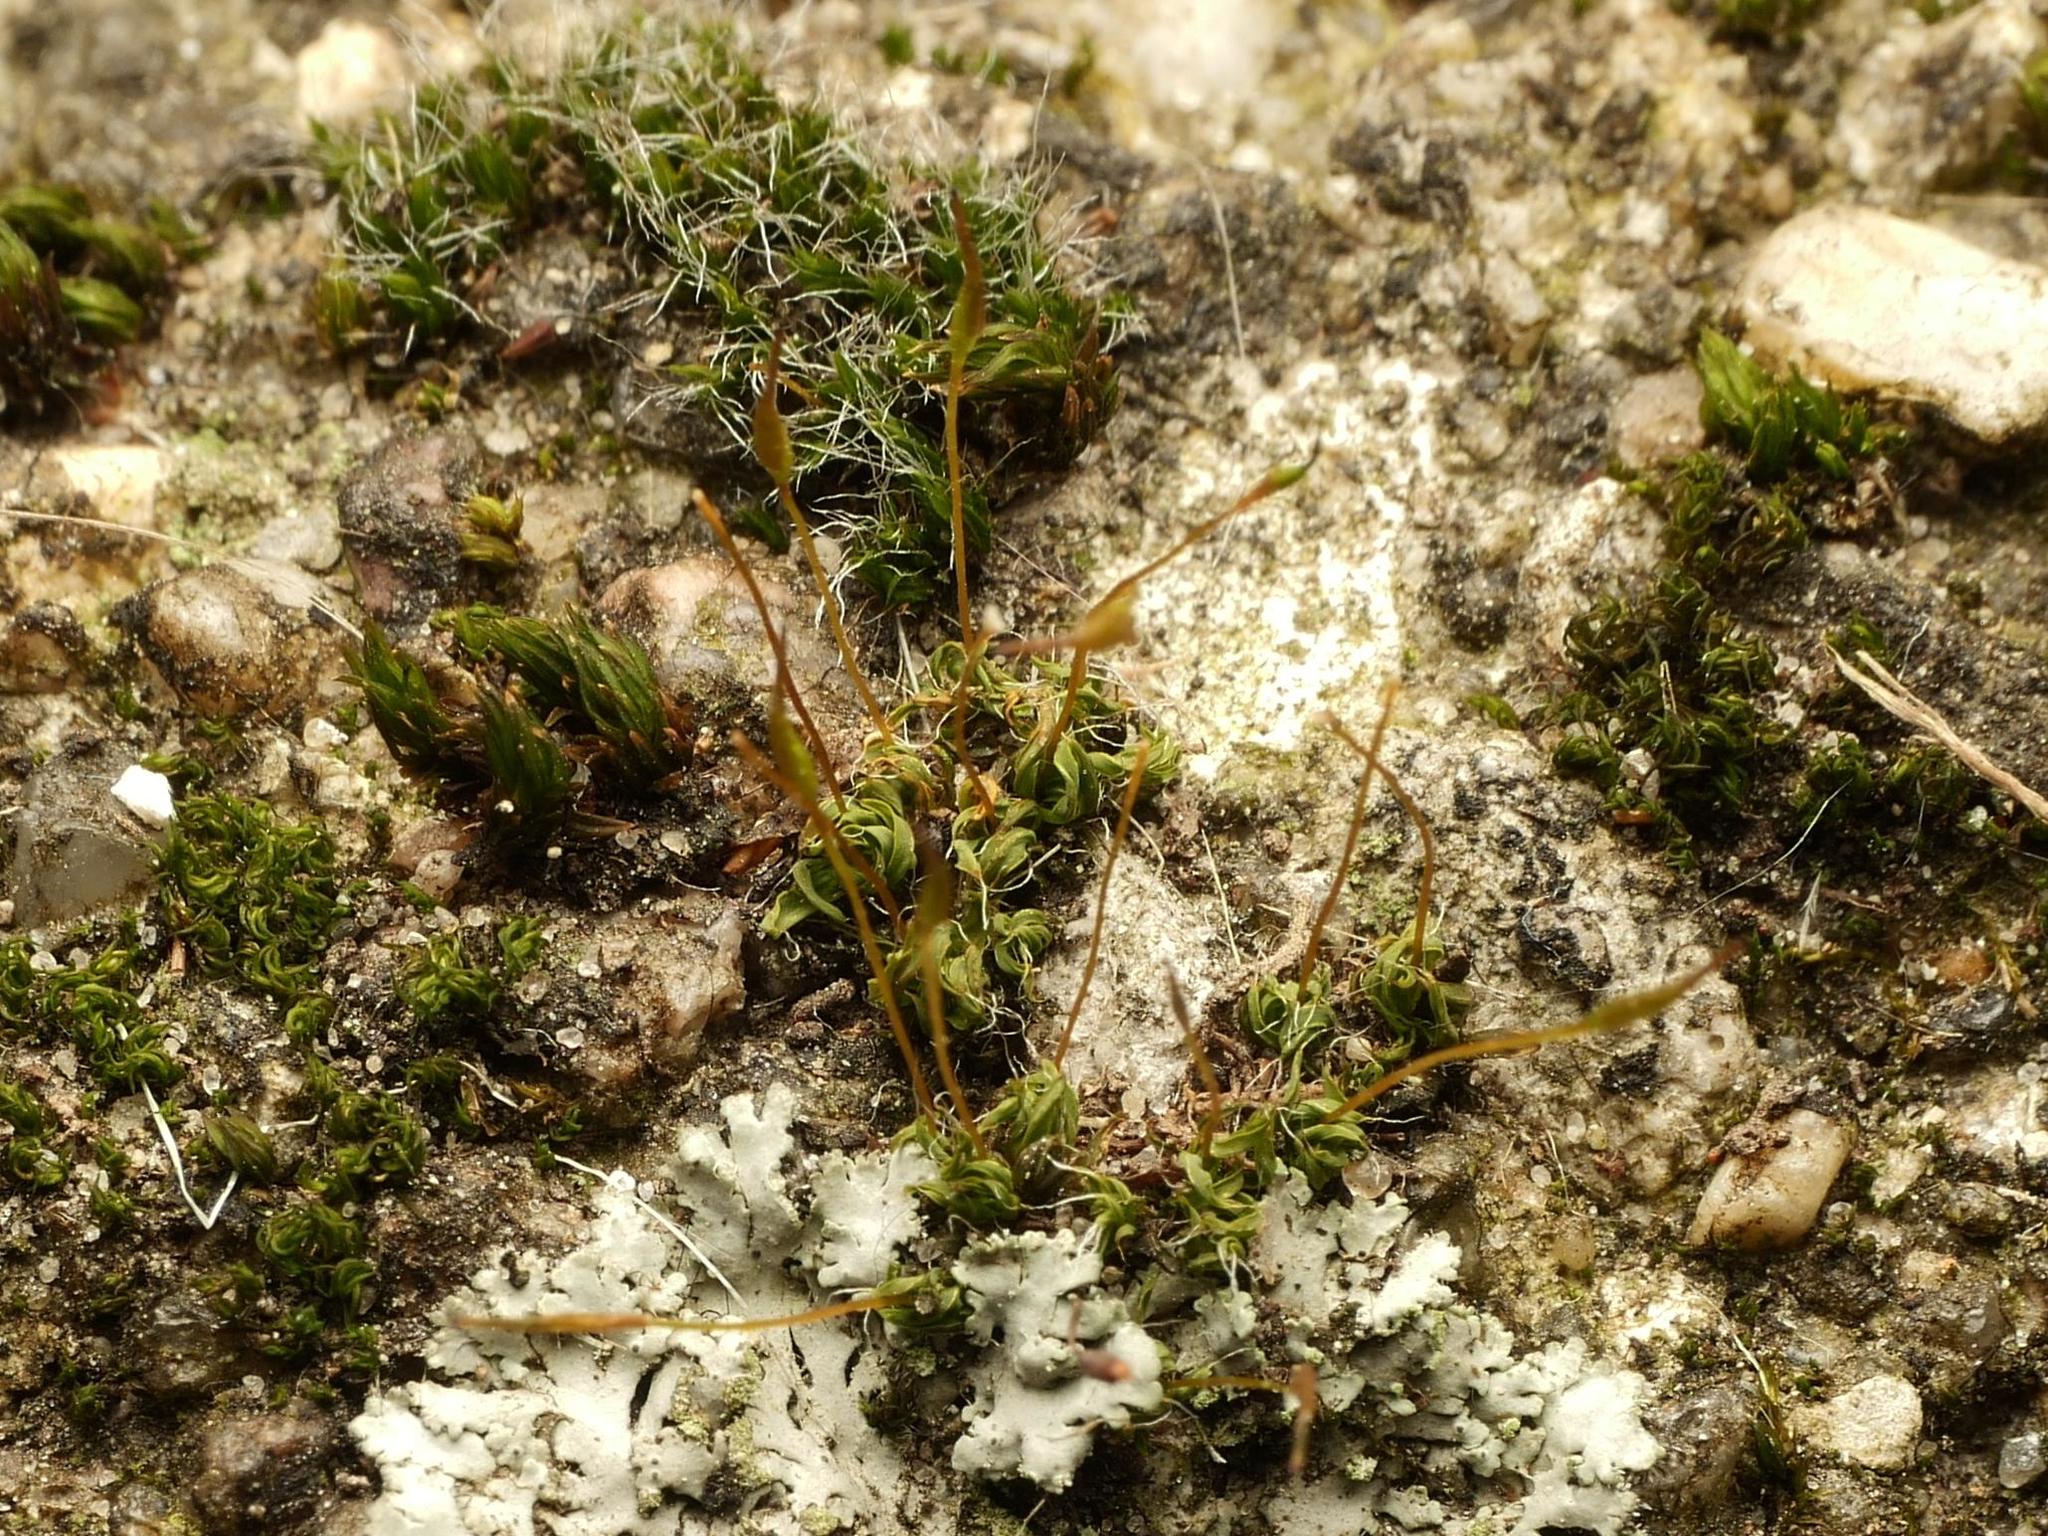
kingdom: Plantae
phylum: Bryophyta
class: Bryopsida
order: Pottiales
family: Pottiaceae
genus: Tortula
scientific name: Tortula muralis
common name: Wall screw-moss
